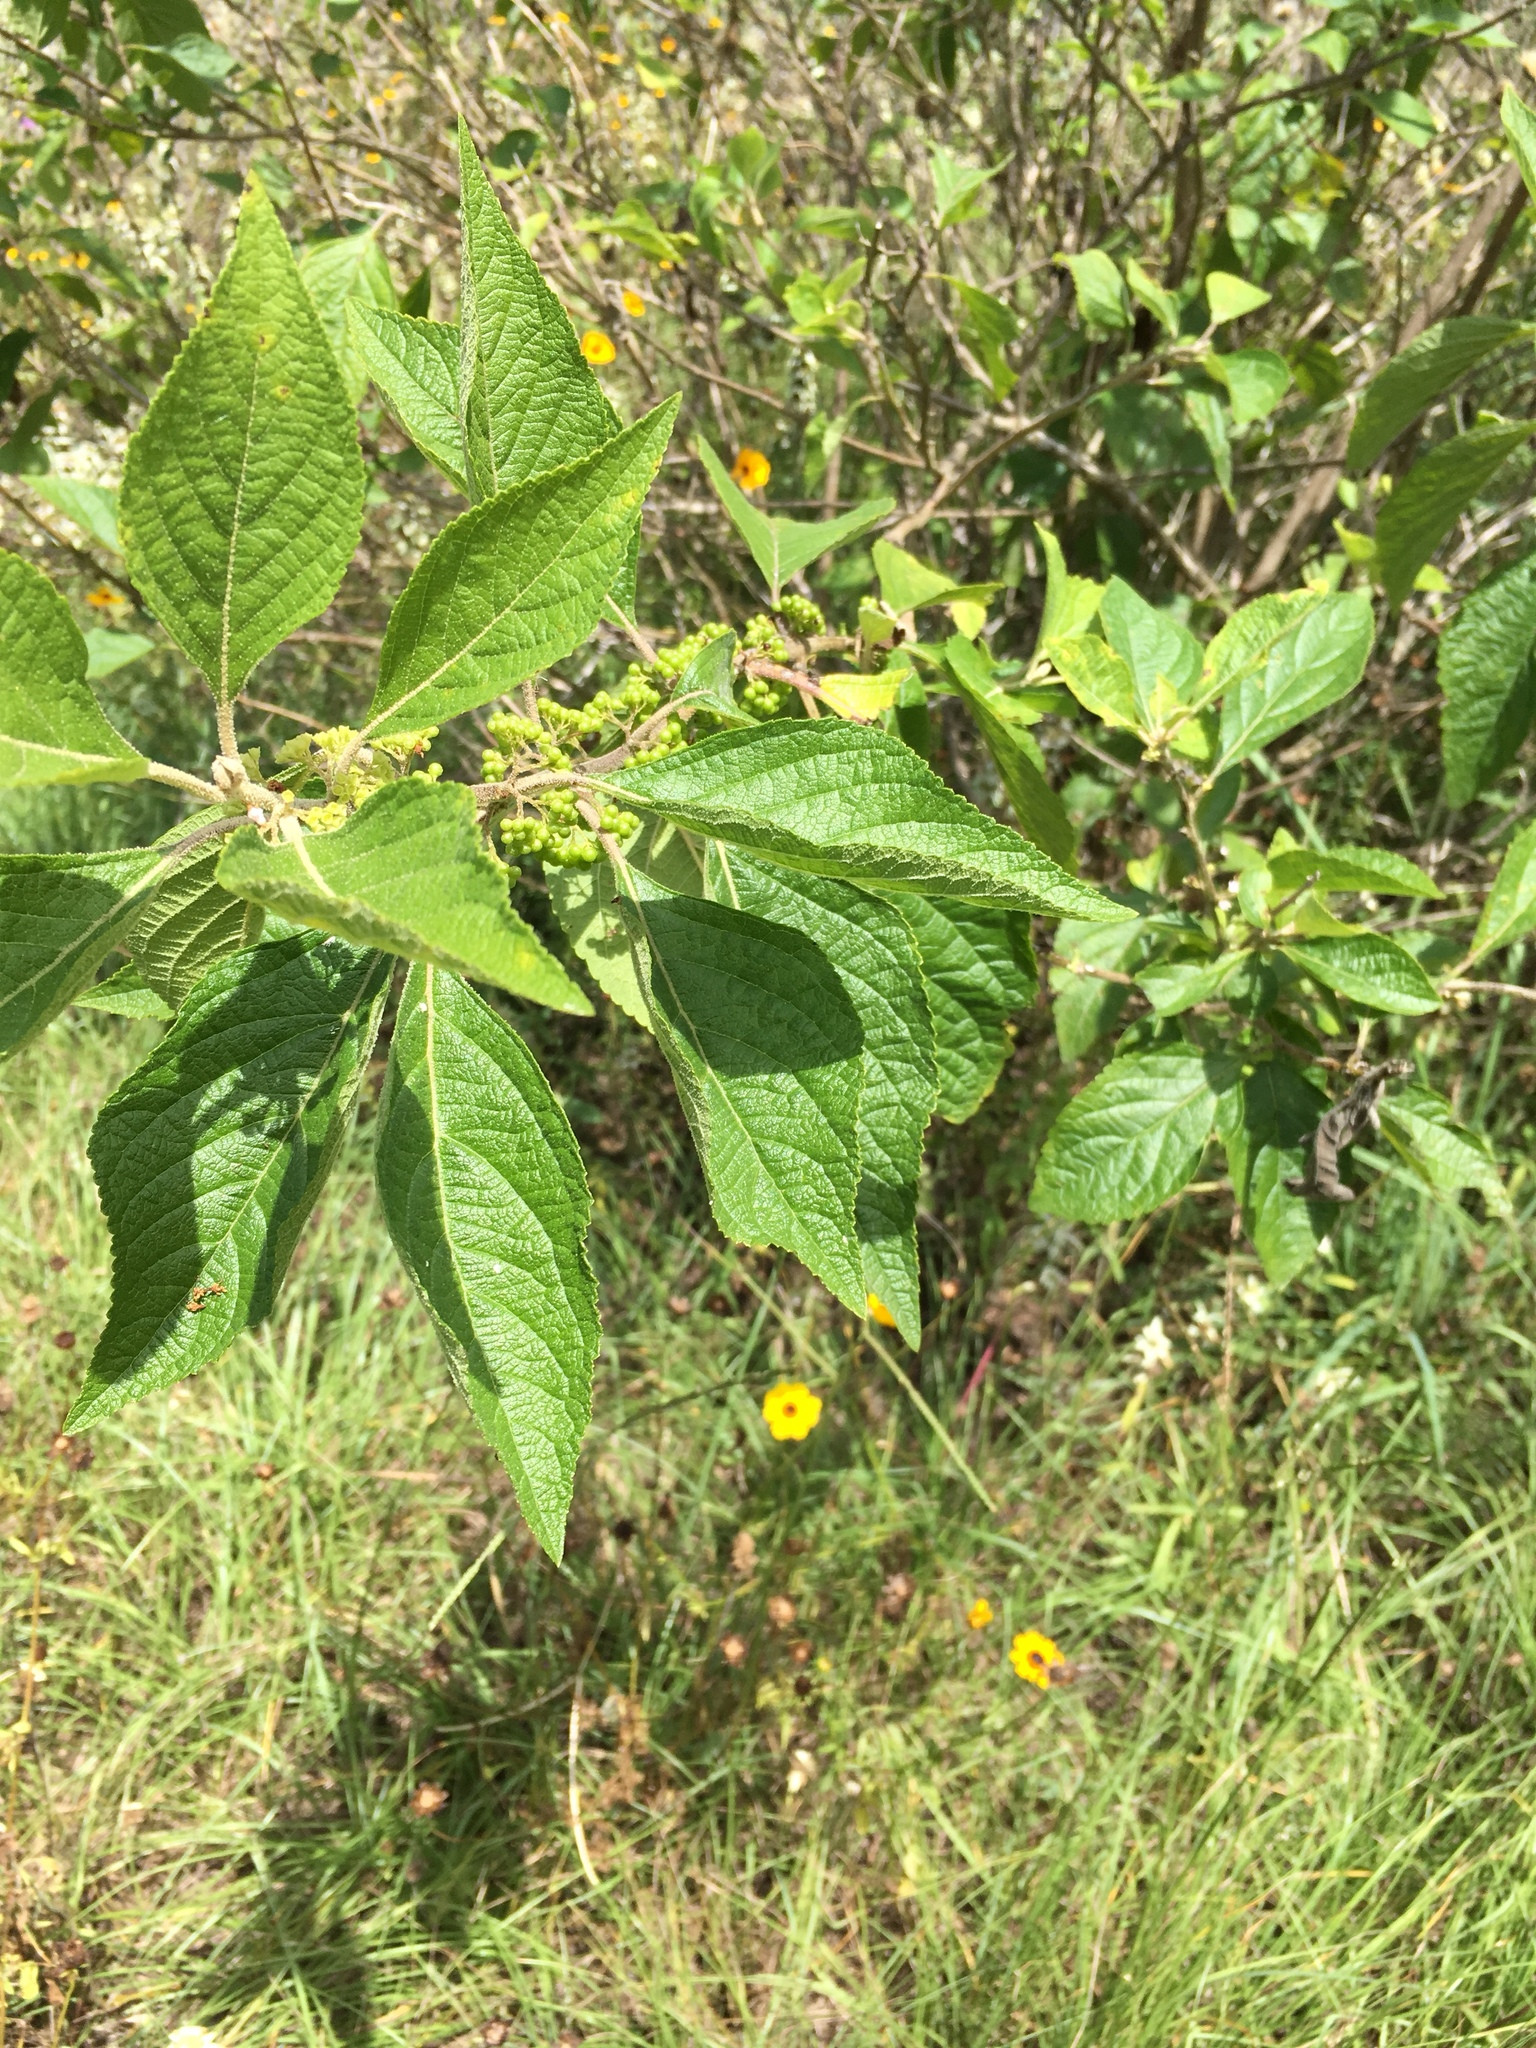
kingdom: Plantae
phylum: Tracheophyta
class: Magnoliopsida
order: Lamiales
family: Lamiaceae
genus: Callicarpa
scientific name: Callicarpa americana
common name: American beautyberry
